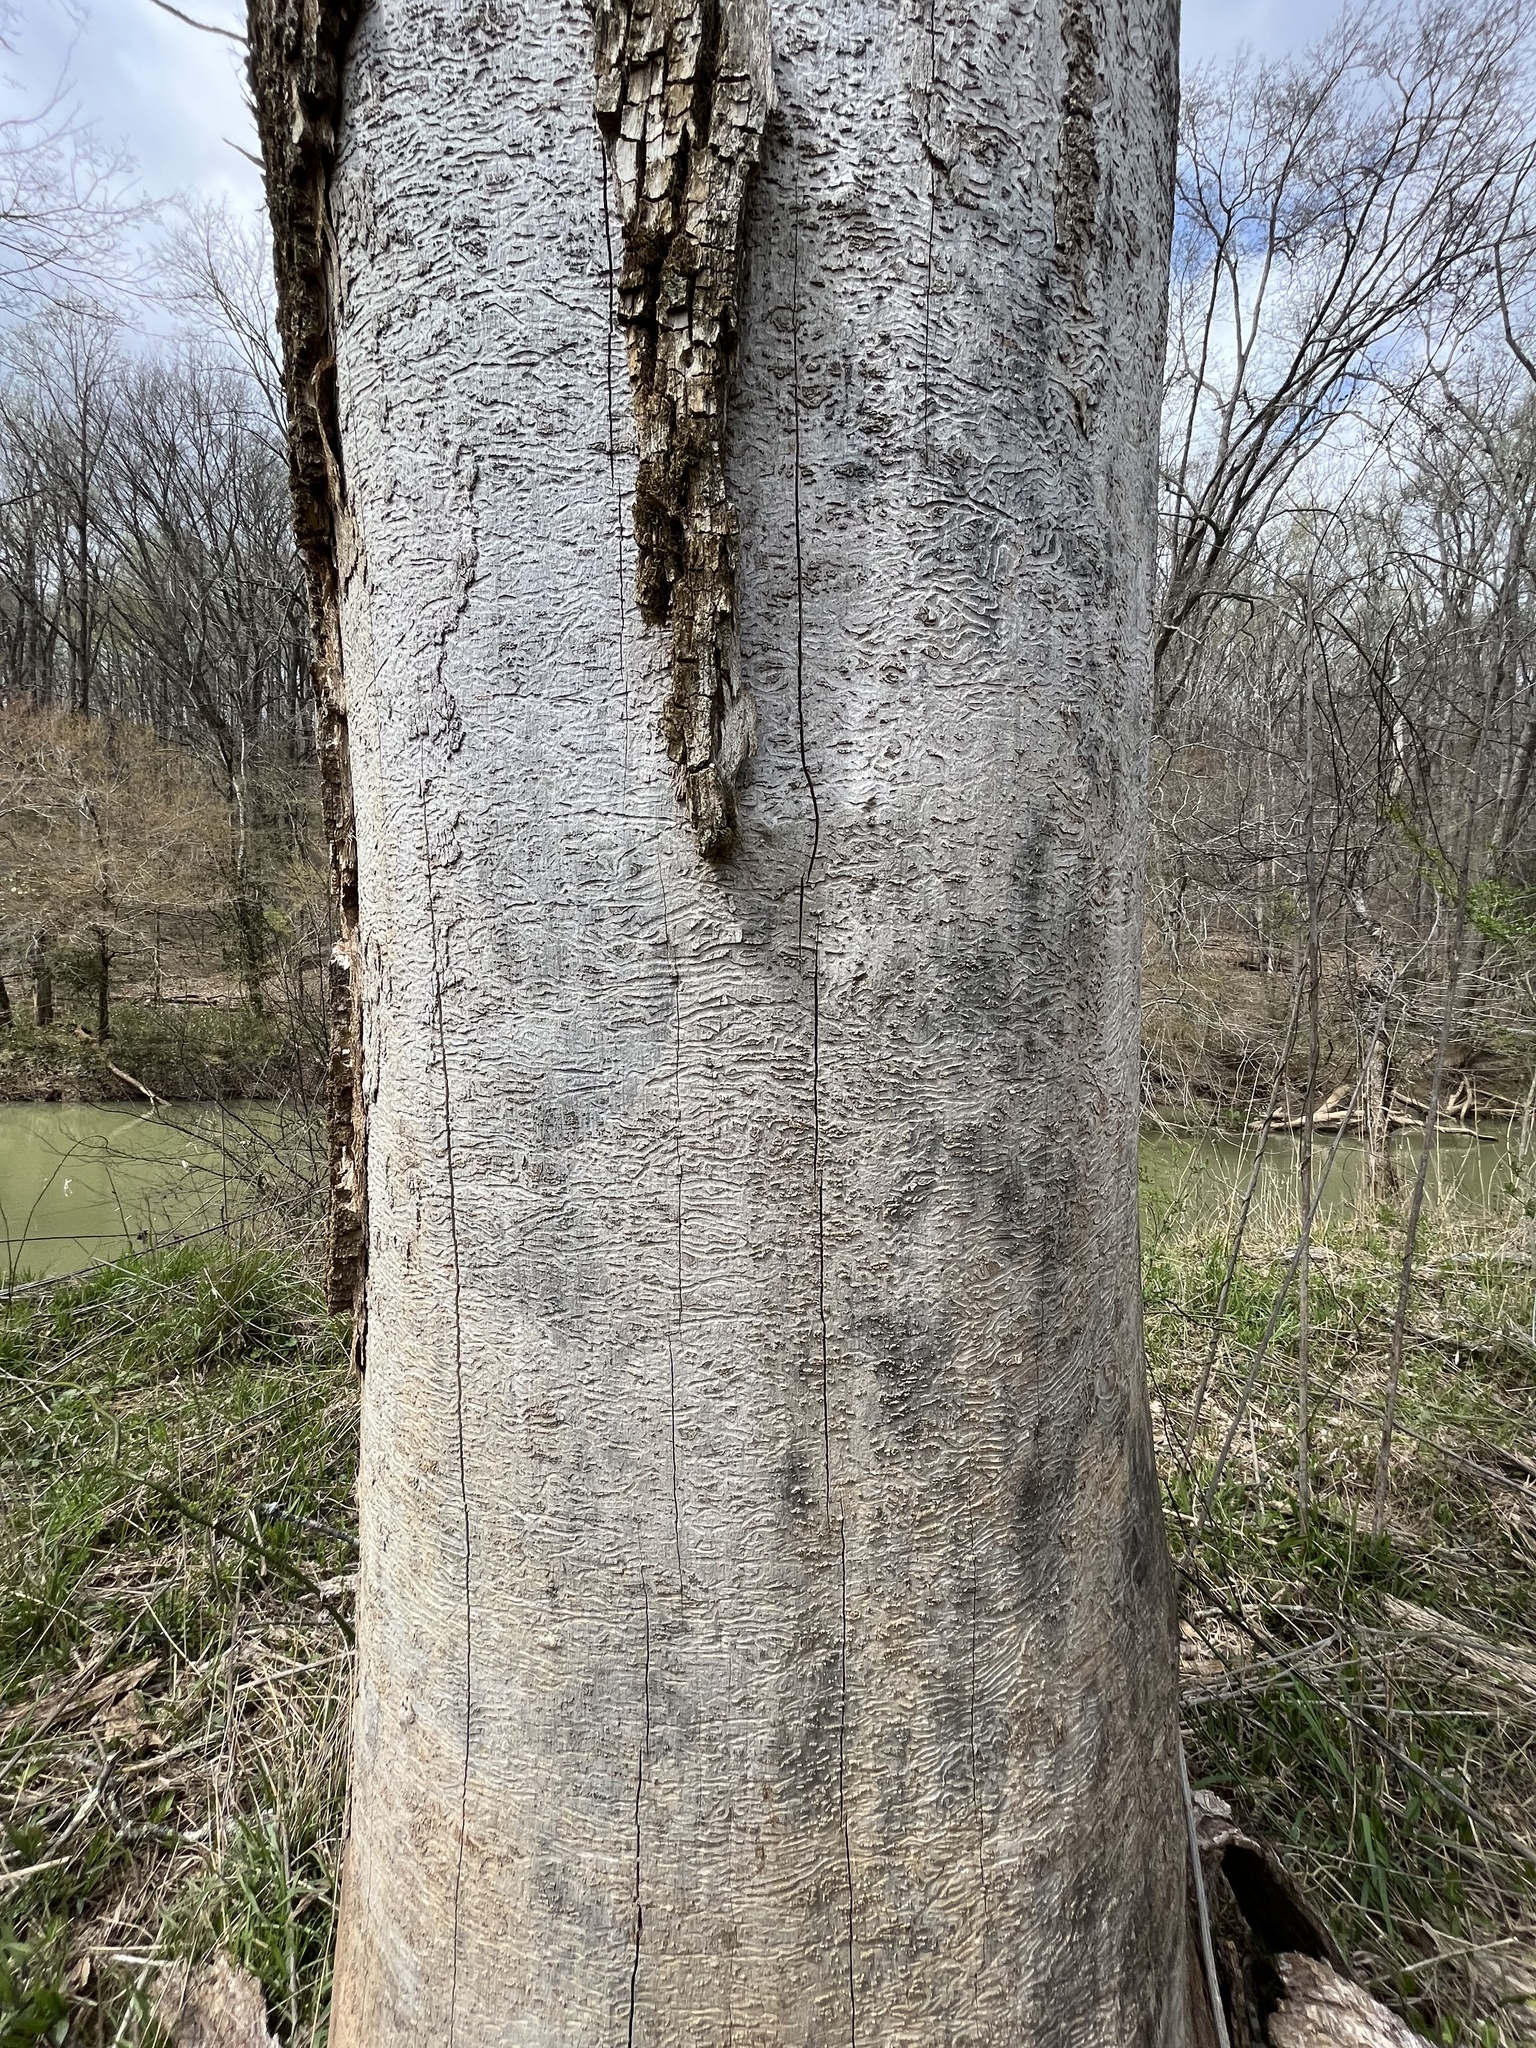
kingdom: Animalia
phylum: Arthropoda
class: Insecta
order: Coleoptera
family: Buprestidae
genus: Agrilus
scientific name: Agrilus planipennis
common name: Emerald ash borer
